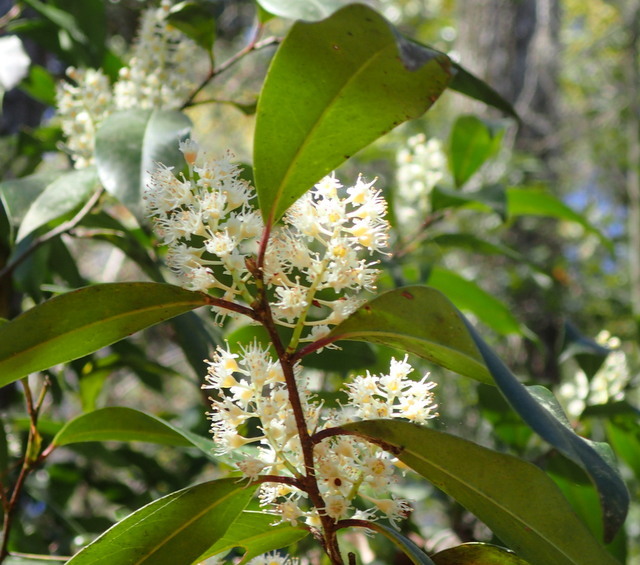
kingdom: Plantae
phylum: Tracheophyta
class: Magnoliopsida
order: Rosales
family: Rosaceae
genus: Prunus
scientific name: Prunus caroliniana
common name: Carolina laurel cherry
